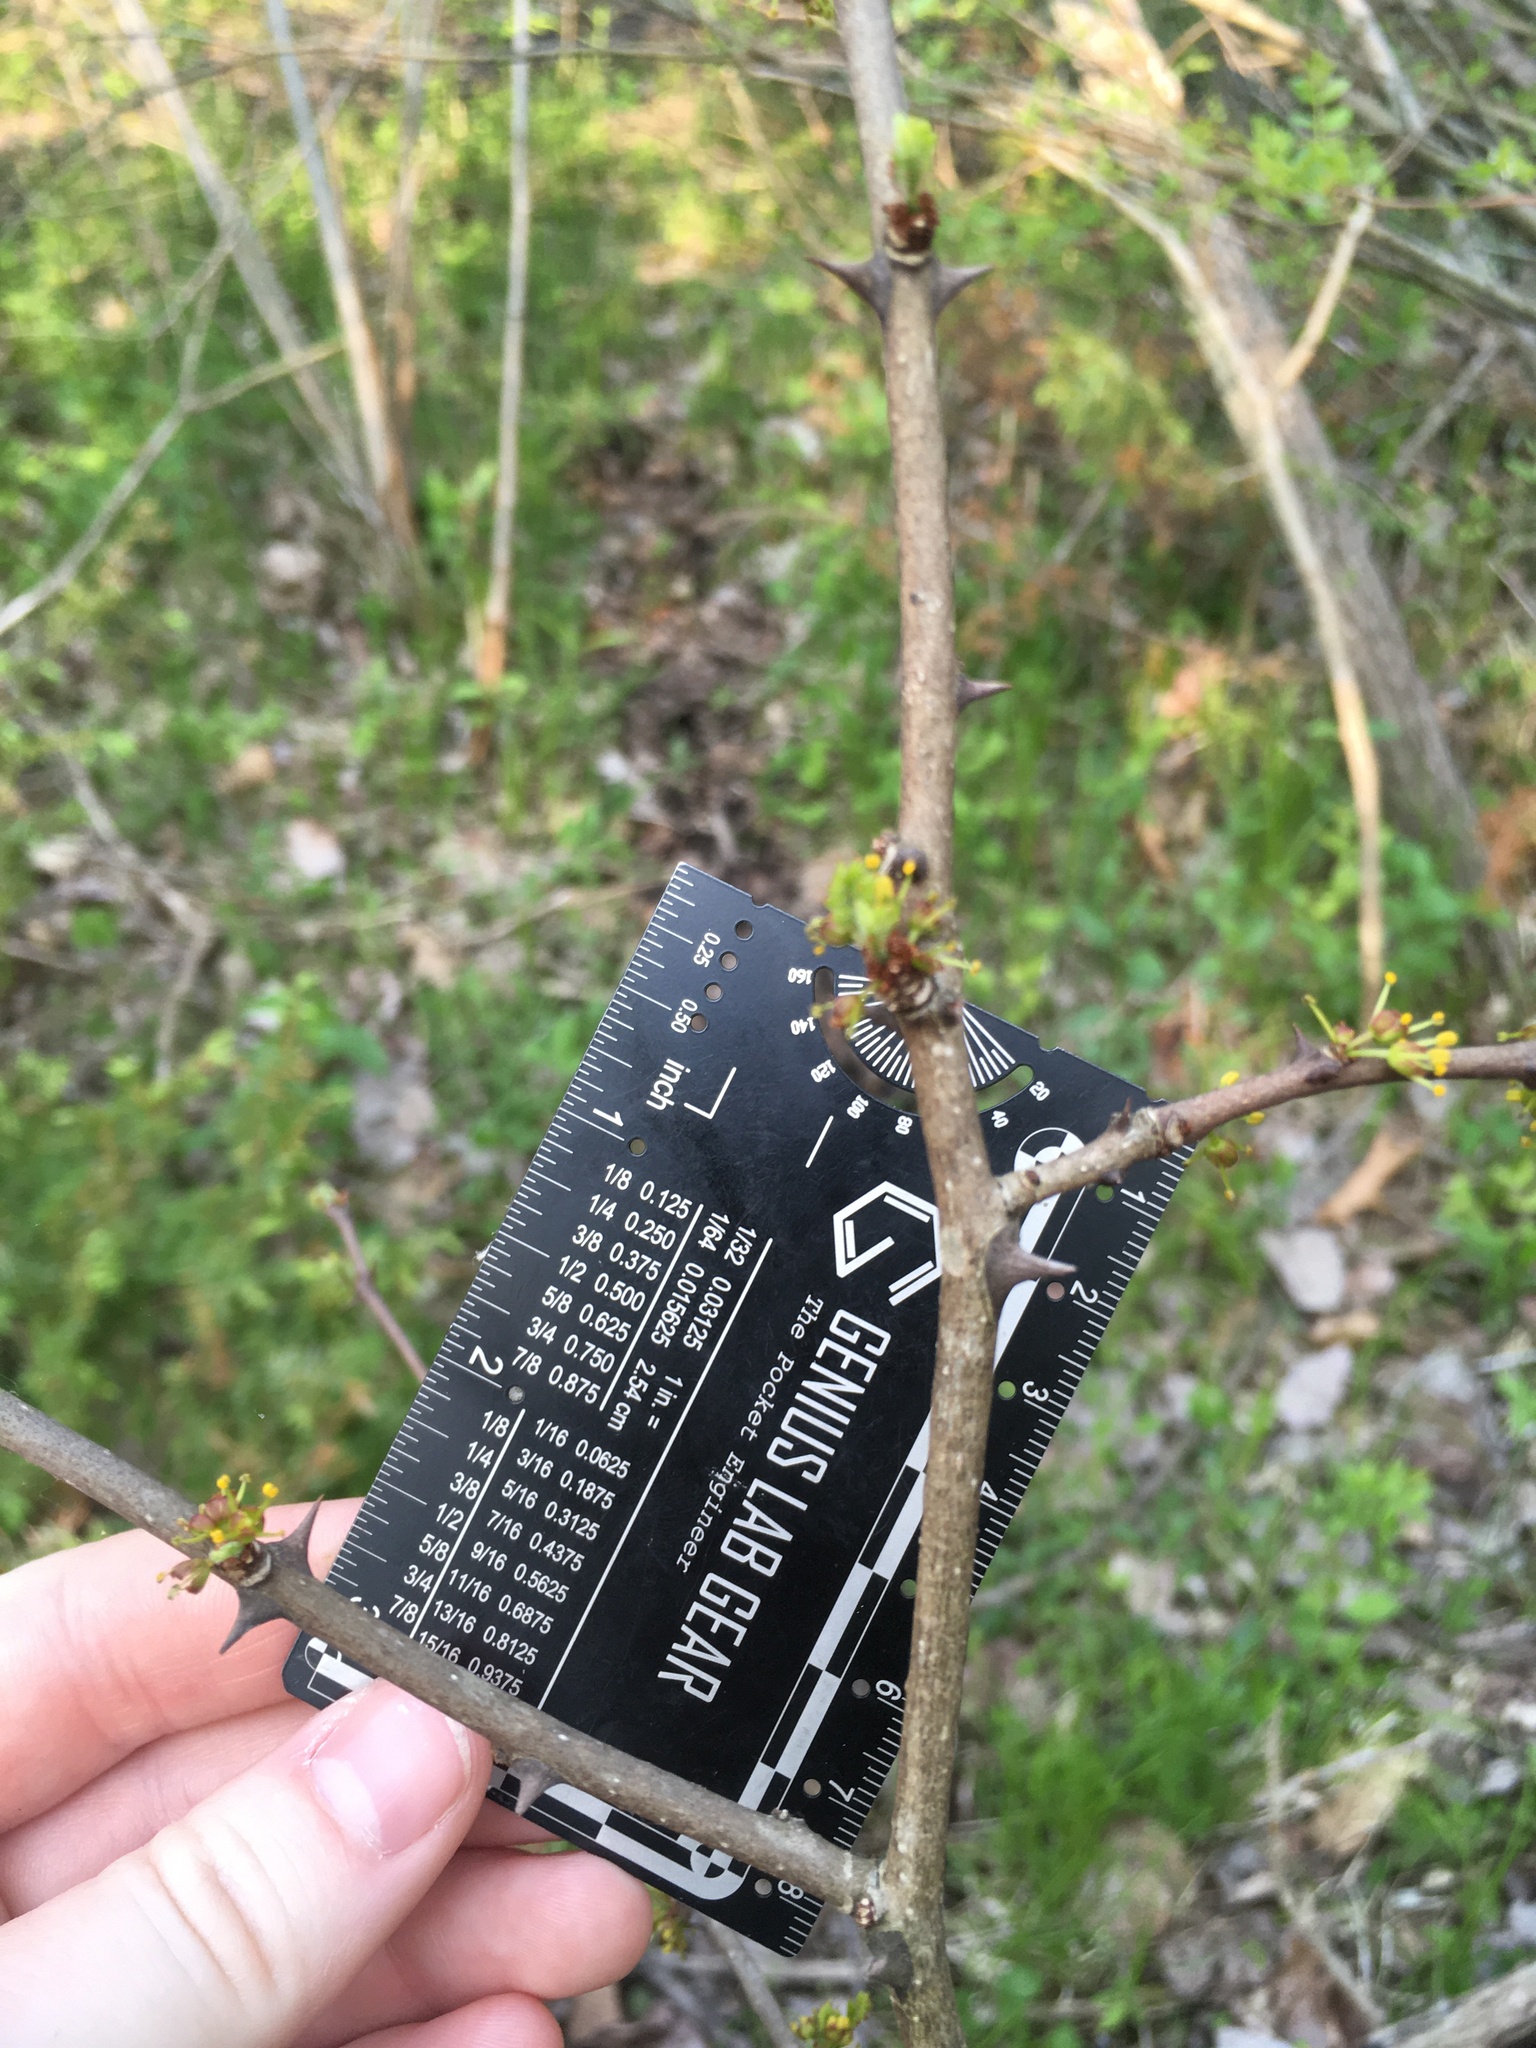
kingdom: Plantae
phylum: Tracheophyta
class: Magnoliopsida
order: Sapindales
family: Rutaceae
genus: Zanthoxylum
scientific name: Zanthoxylum americanum
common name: Northern prickly-ash
